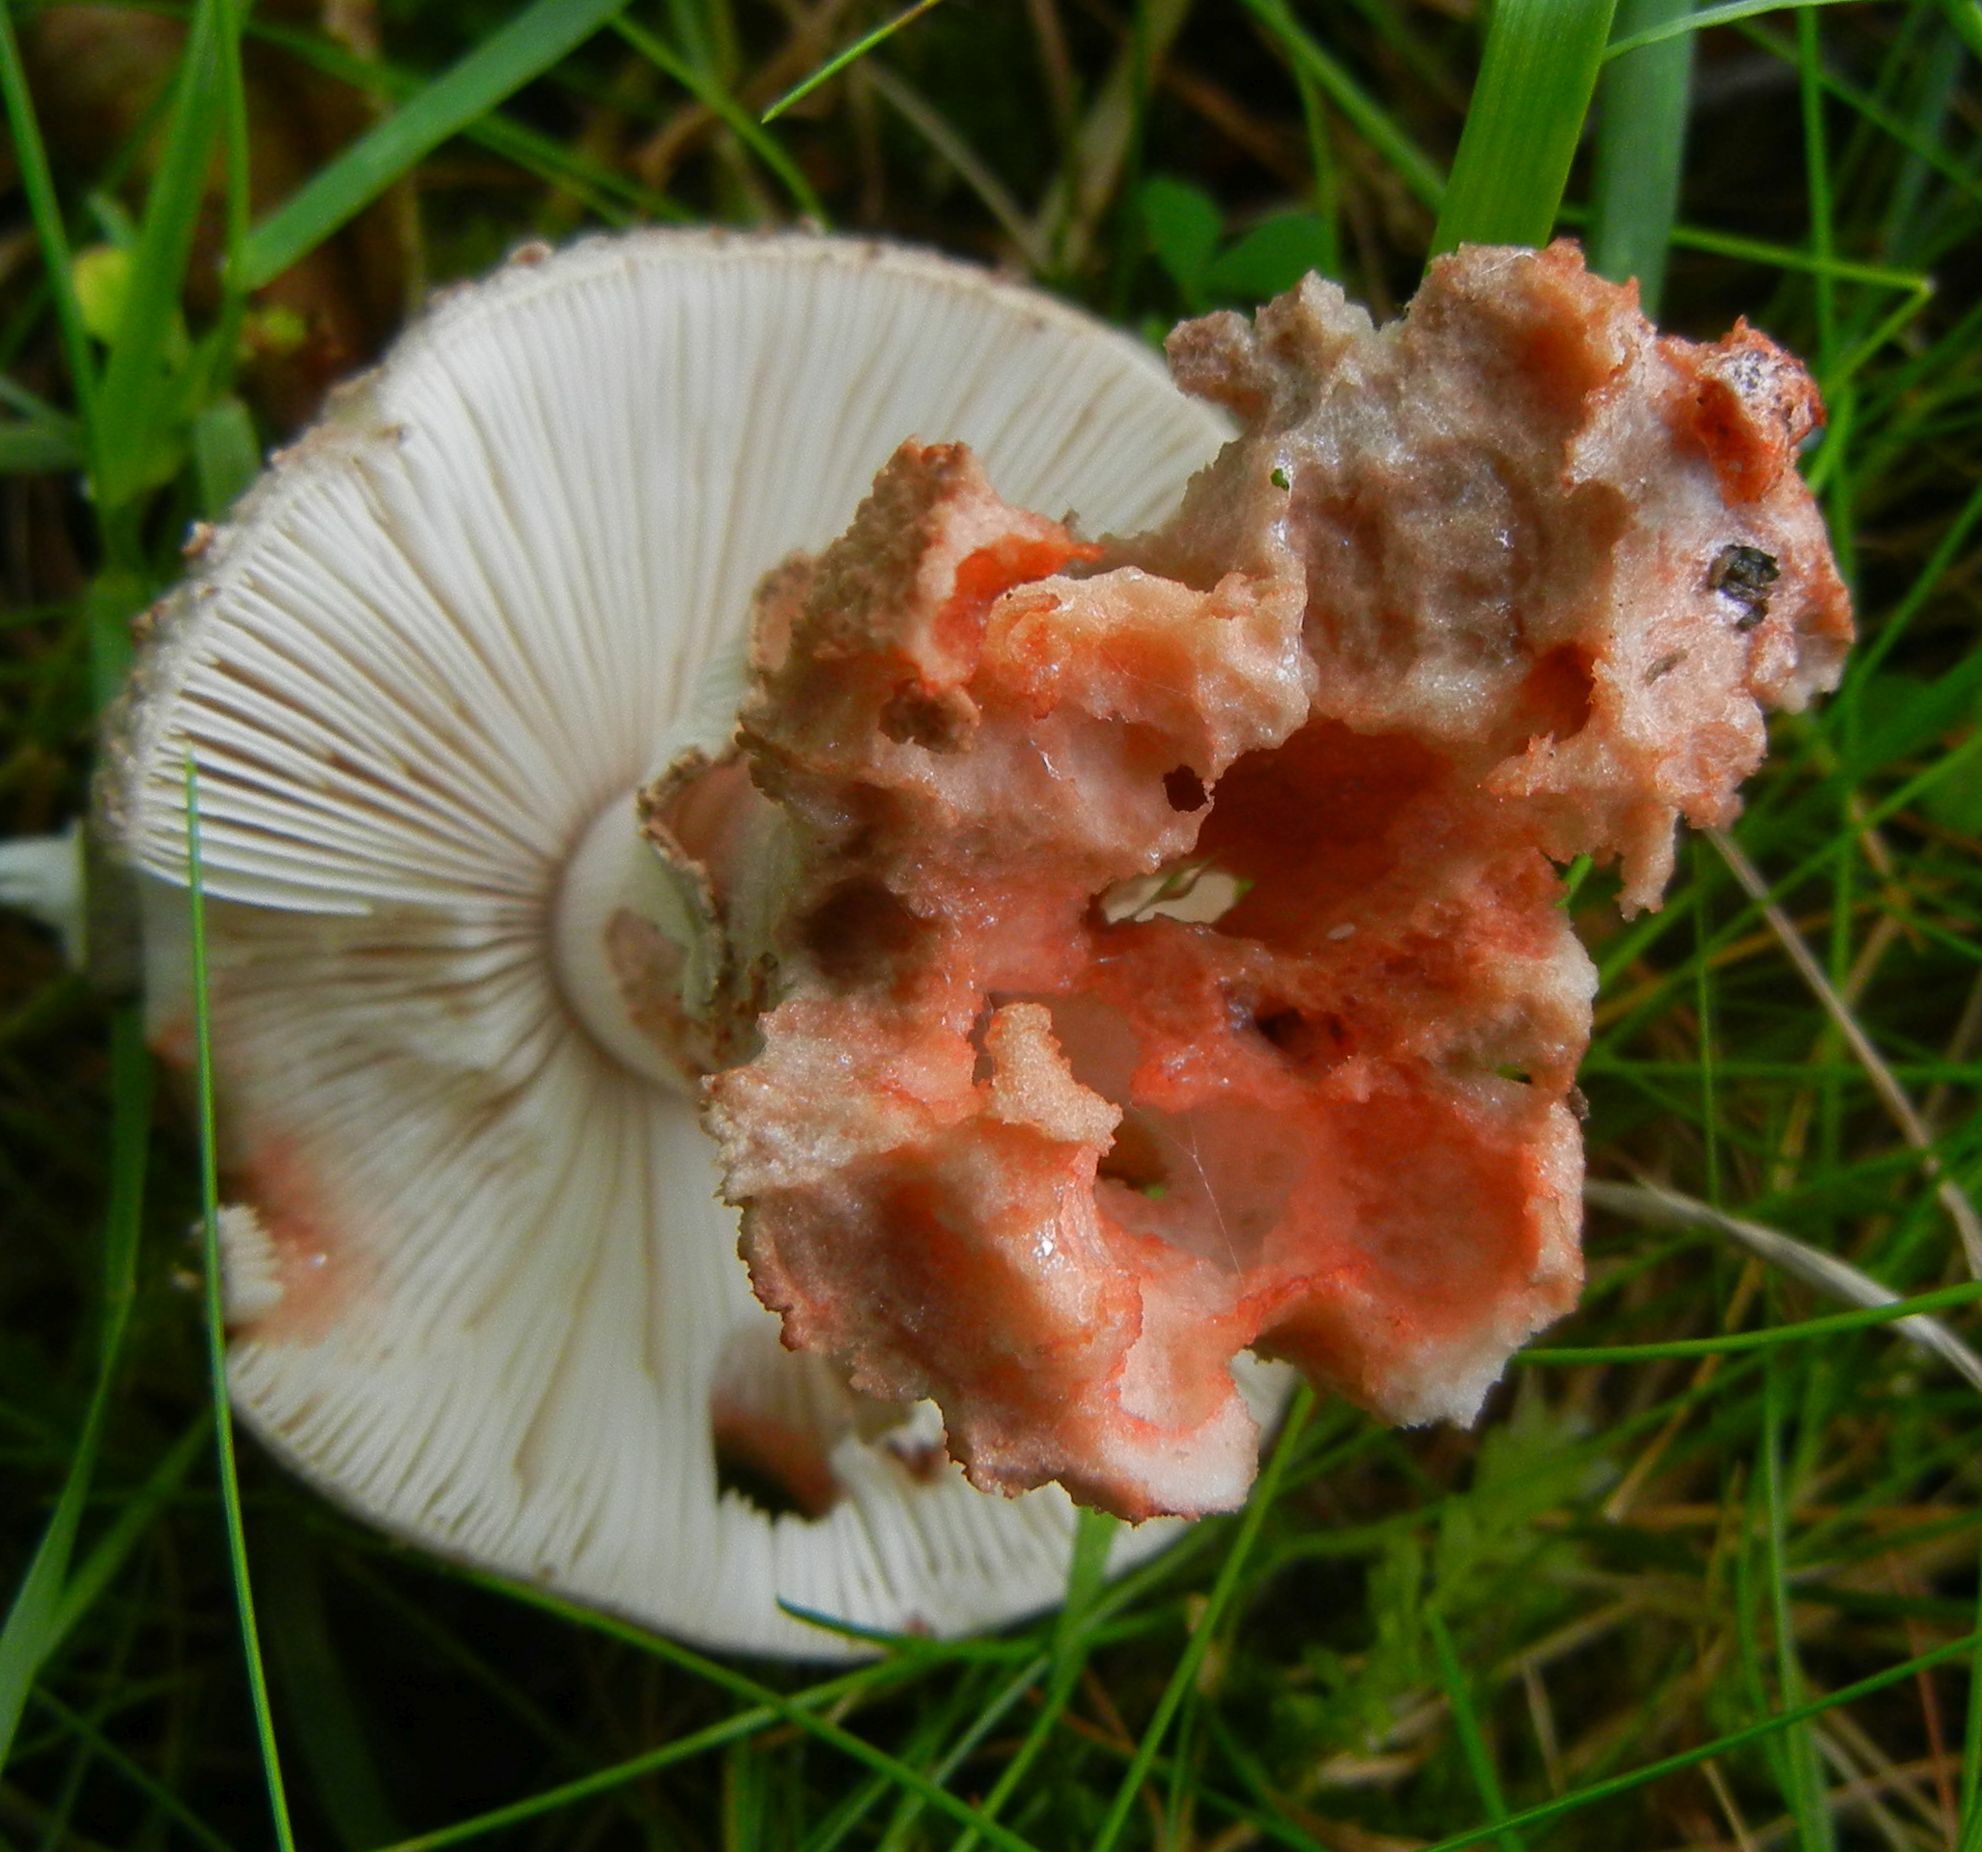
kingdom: Fungi
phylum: Basidiomycota
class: Agaricomycetes
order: Agaricales
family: Amanitaceae
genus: Amanita
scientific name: Amanita rubescens
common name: Blusher
